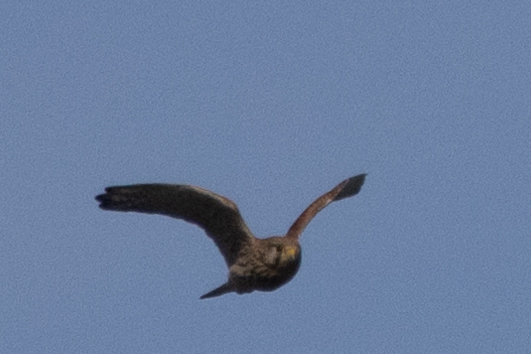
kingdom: Animalia
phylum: Chordata
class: Aves
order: Falconiformes
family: Falconidae
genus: Falco
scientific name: Falco tinnunculus
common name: Common kestrel
